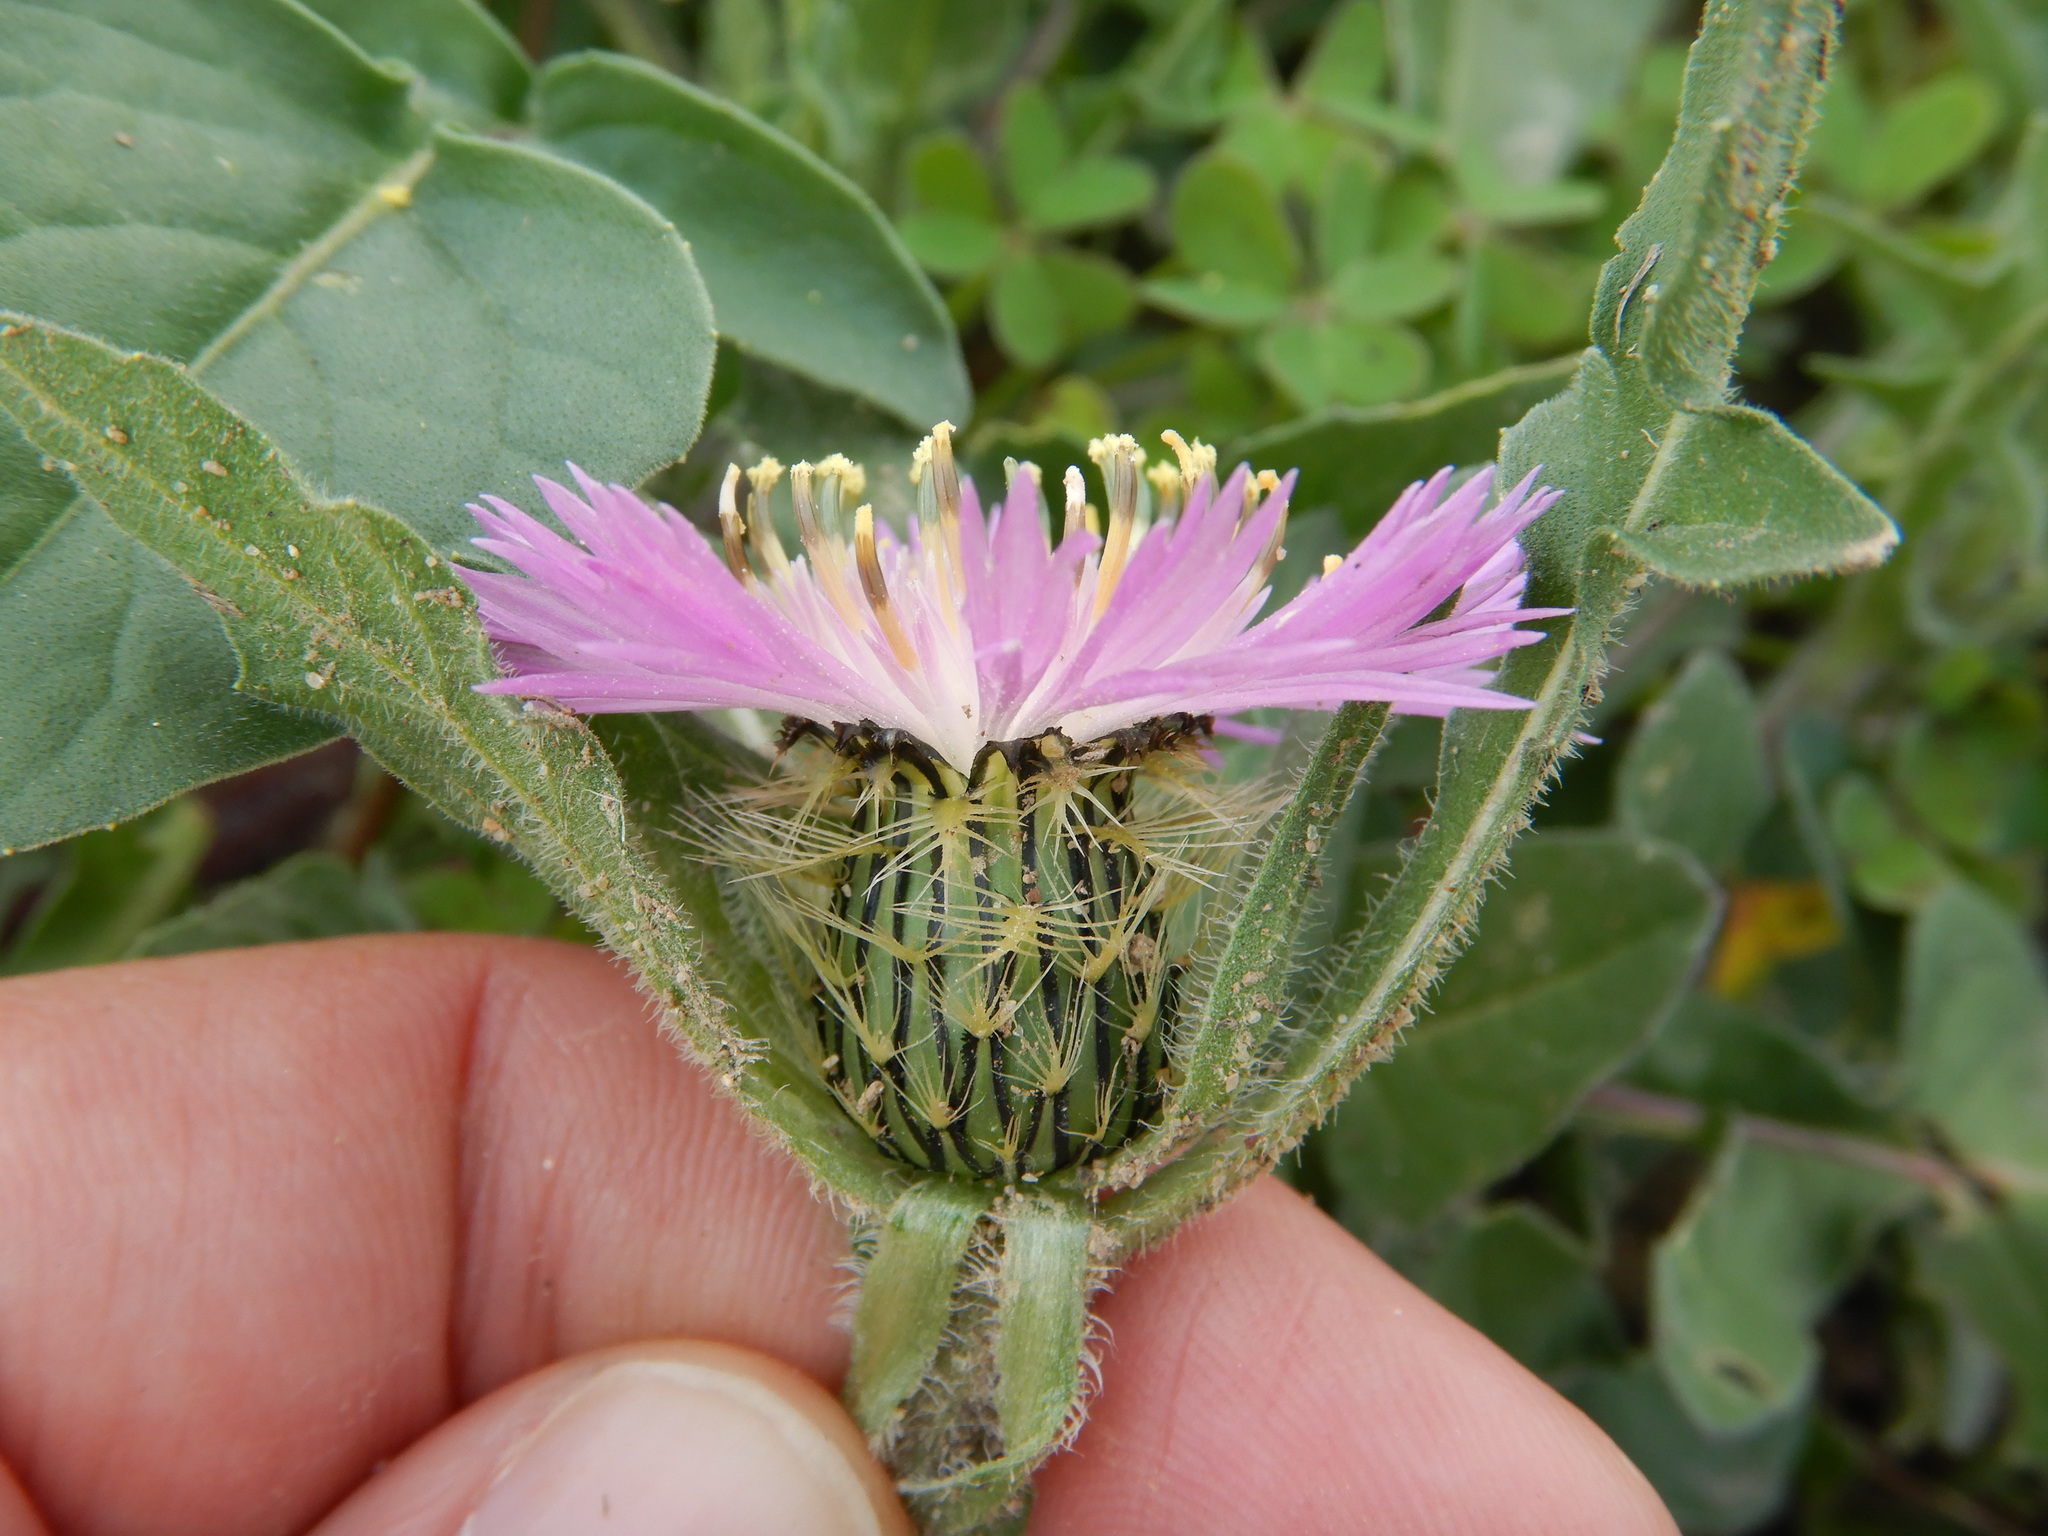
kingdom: Plantae
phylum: Tracheophyta
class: Magnoliopsida
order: Asterales
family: Asteraceae
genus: Centaurea
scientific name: Centaurea pullata
